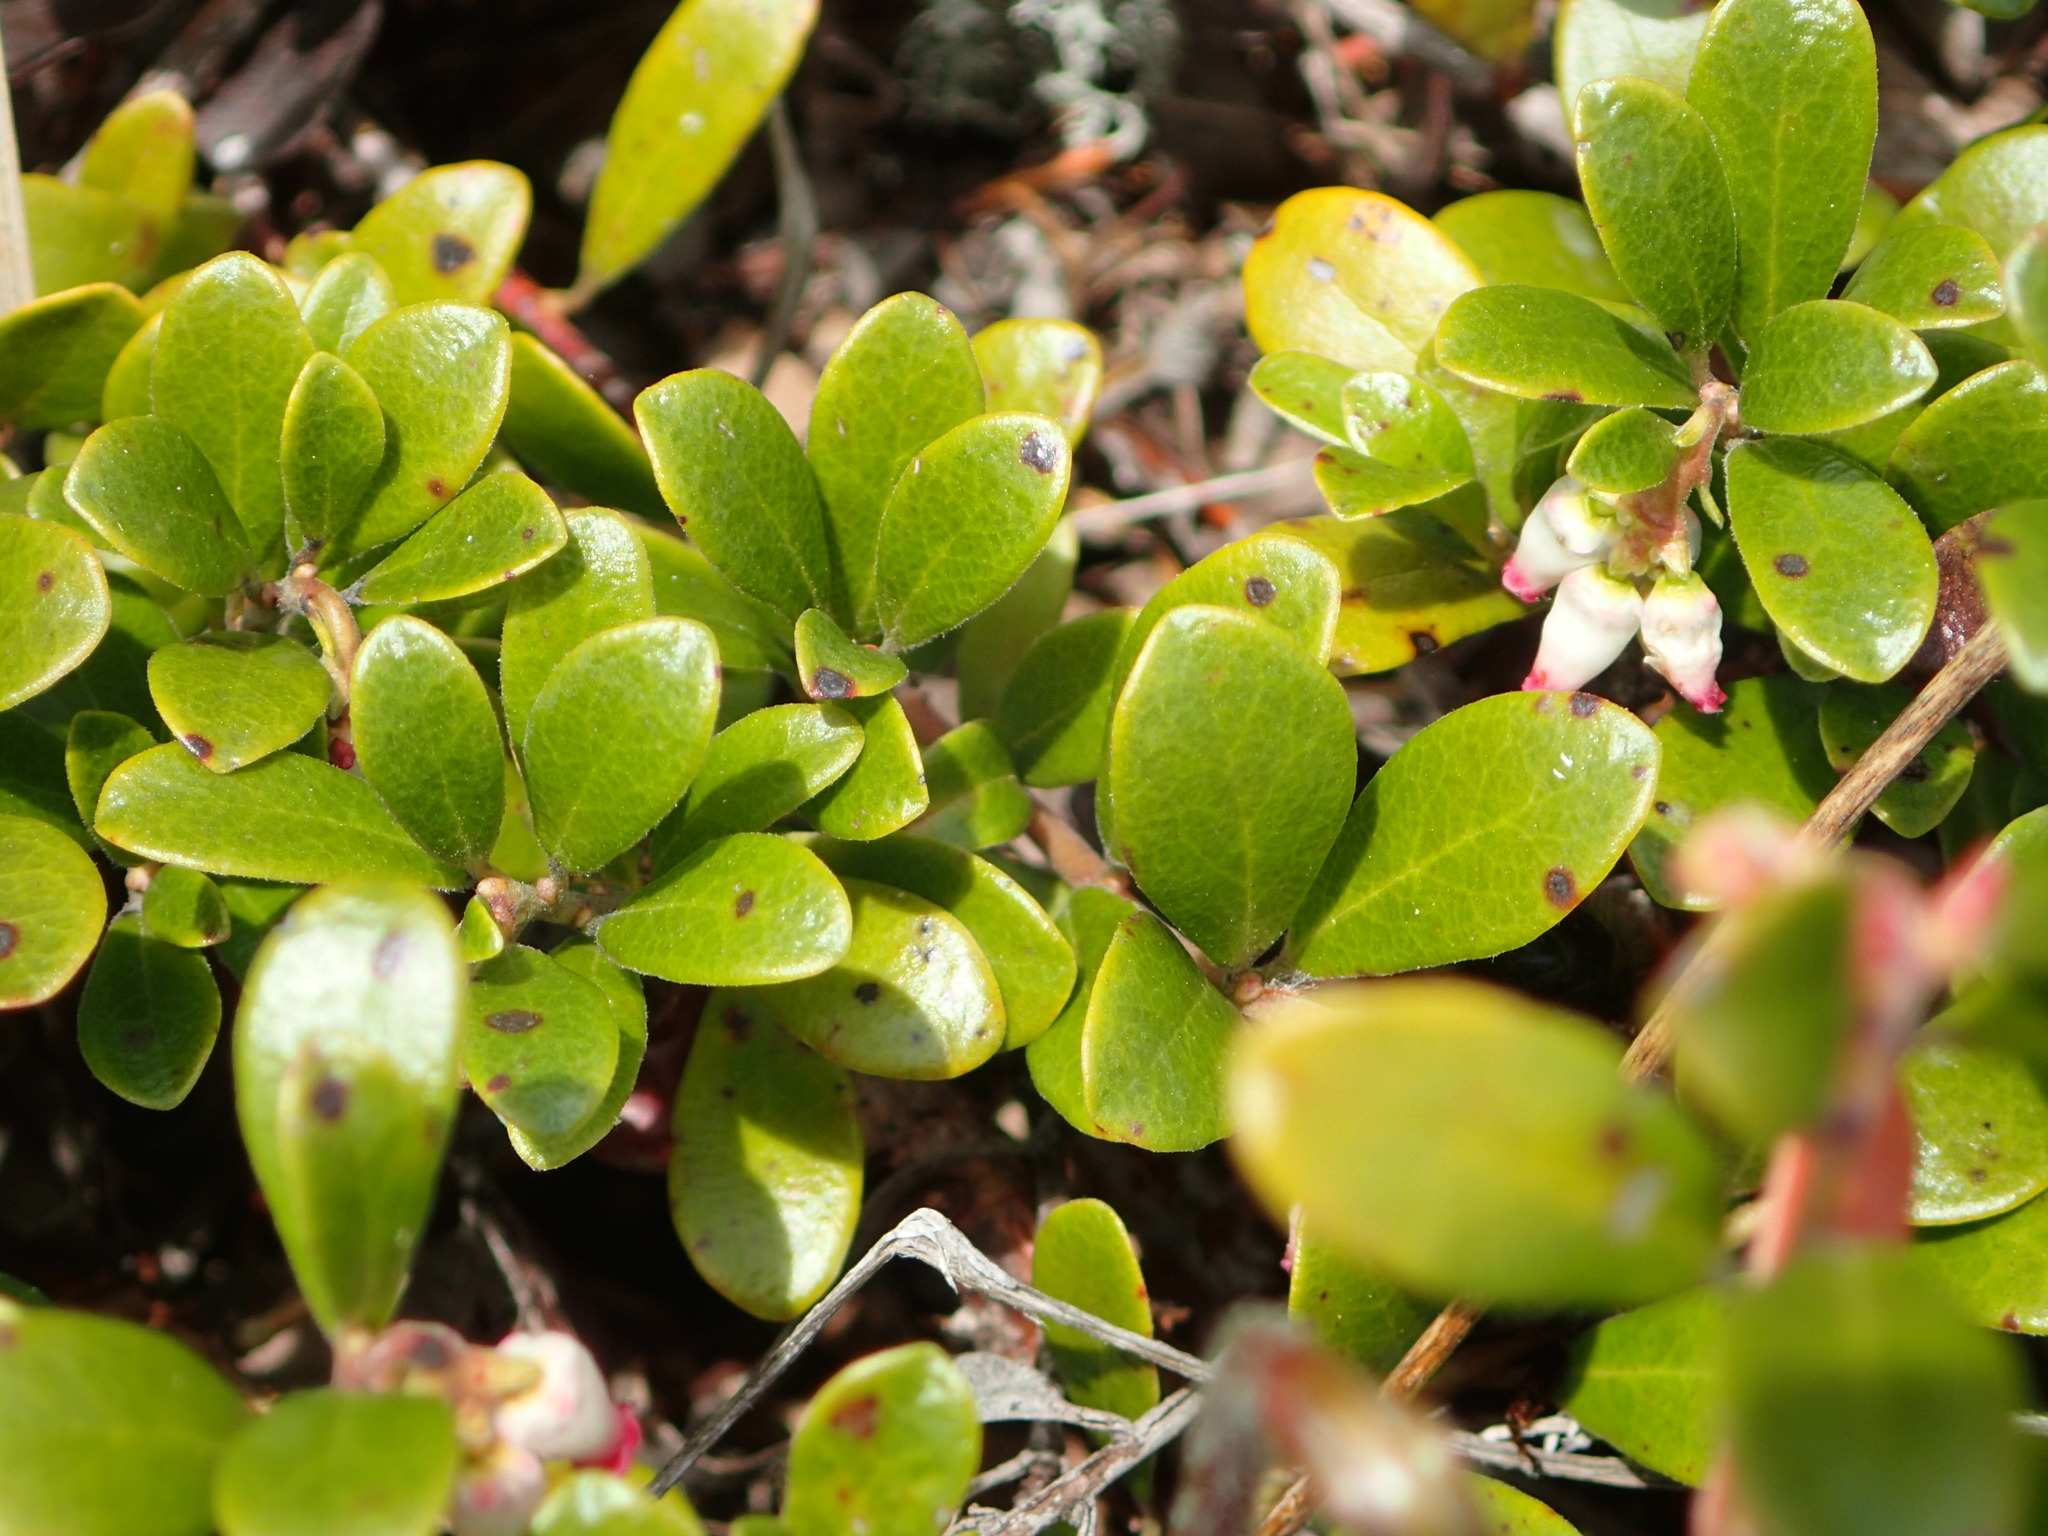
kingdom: Plantae
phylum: Tracheophyta
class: Magnoliopsida
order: Ericales
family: Ericaceae
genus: Arctostaphylos
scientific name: Arctostaphylos uva-ursi
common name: Bearberry
